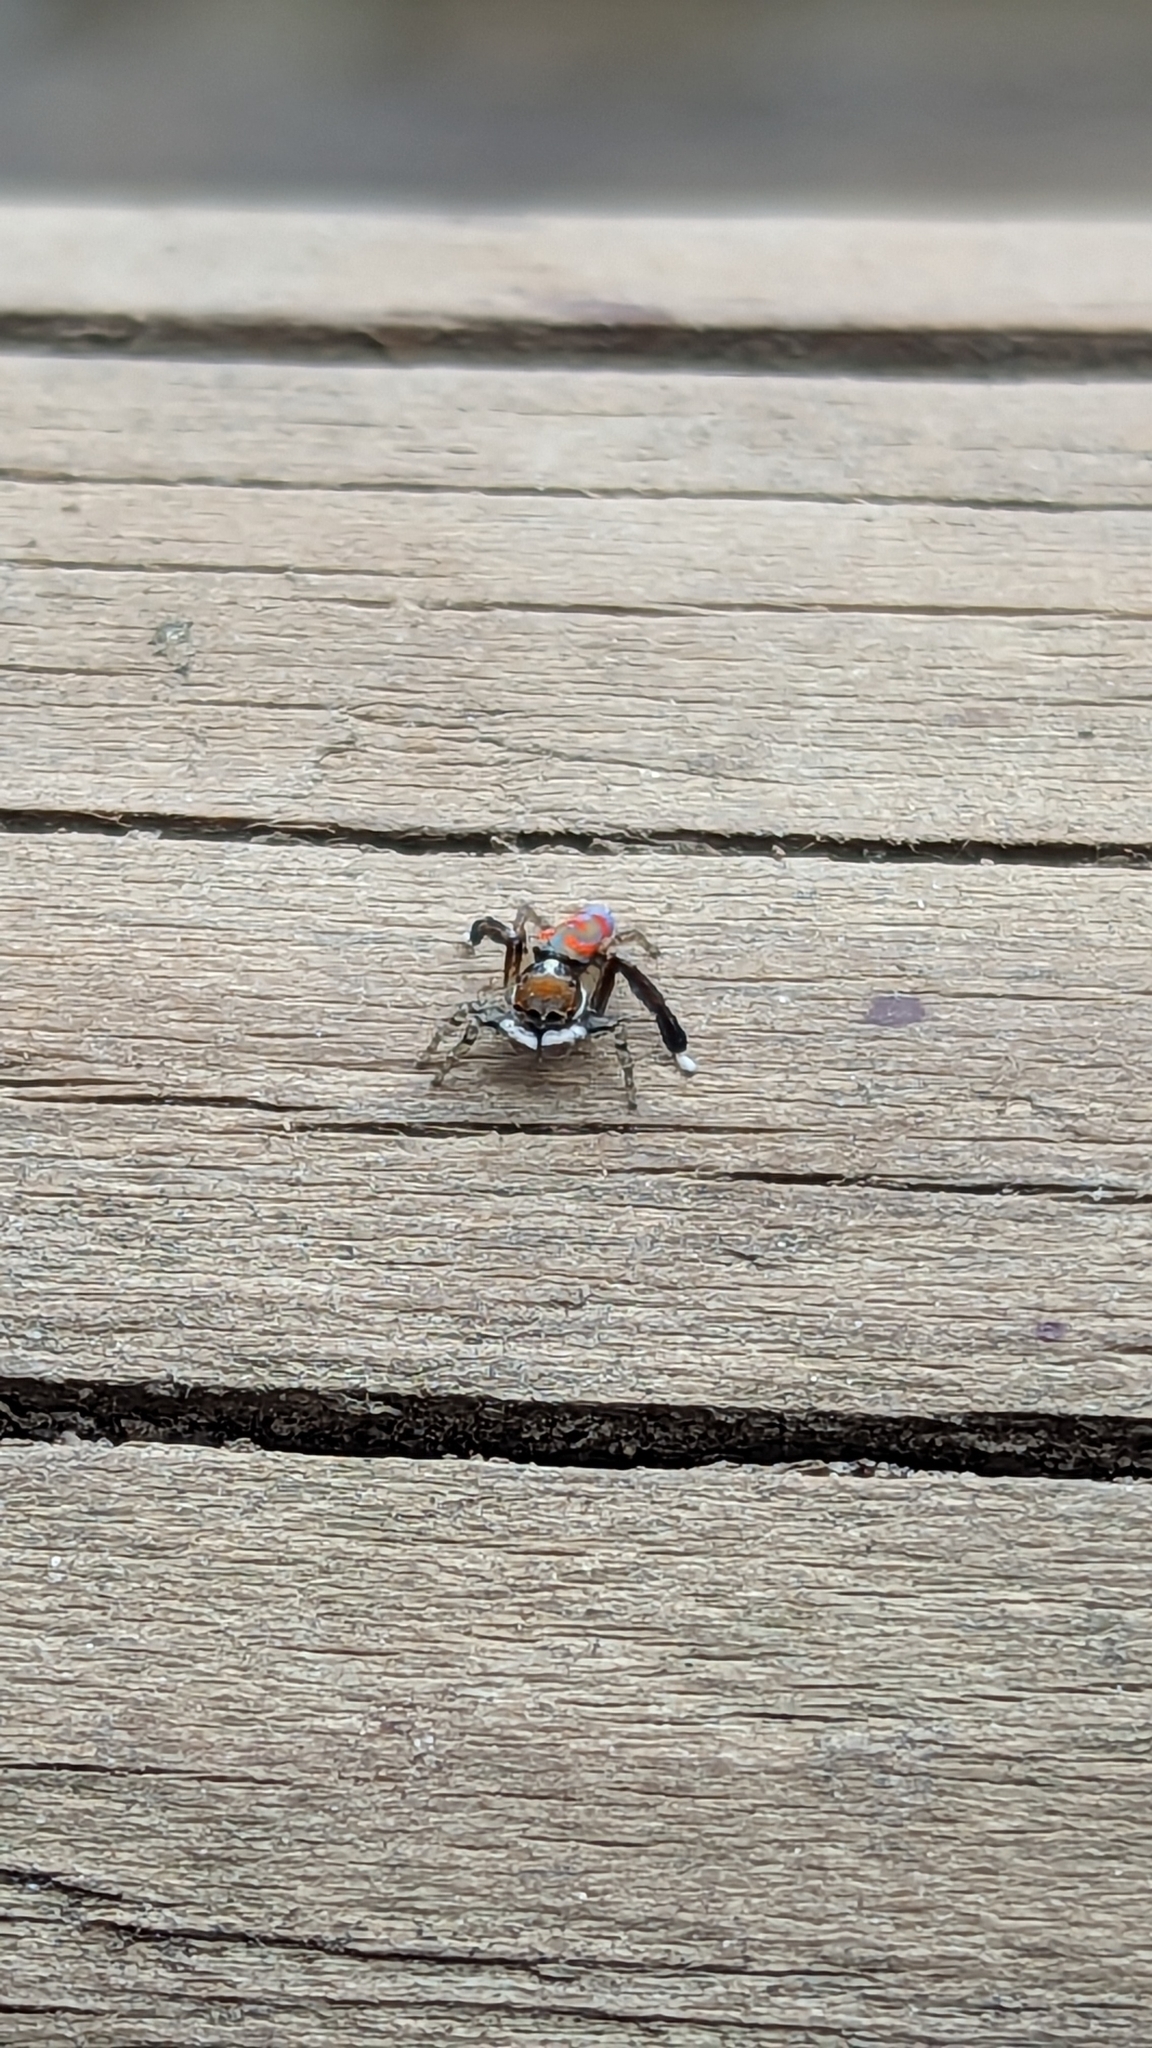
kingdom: Animalia
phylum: Arthropoda
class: Arachnida
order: Araneae
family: Salticidae
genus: Maratus
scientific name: Maratus pavonis
